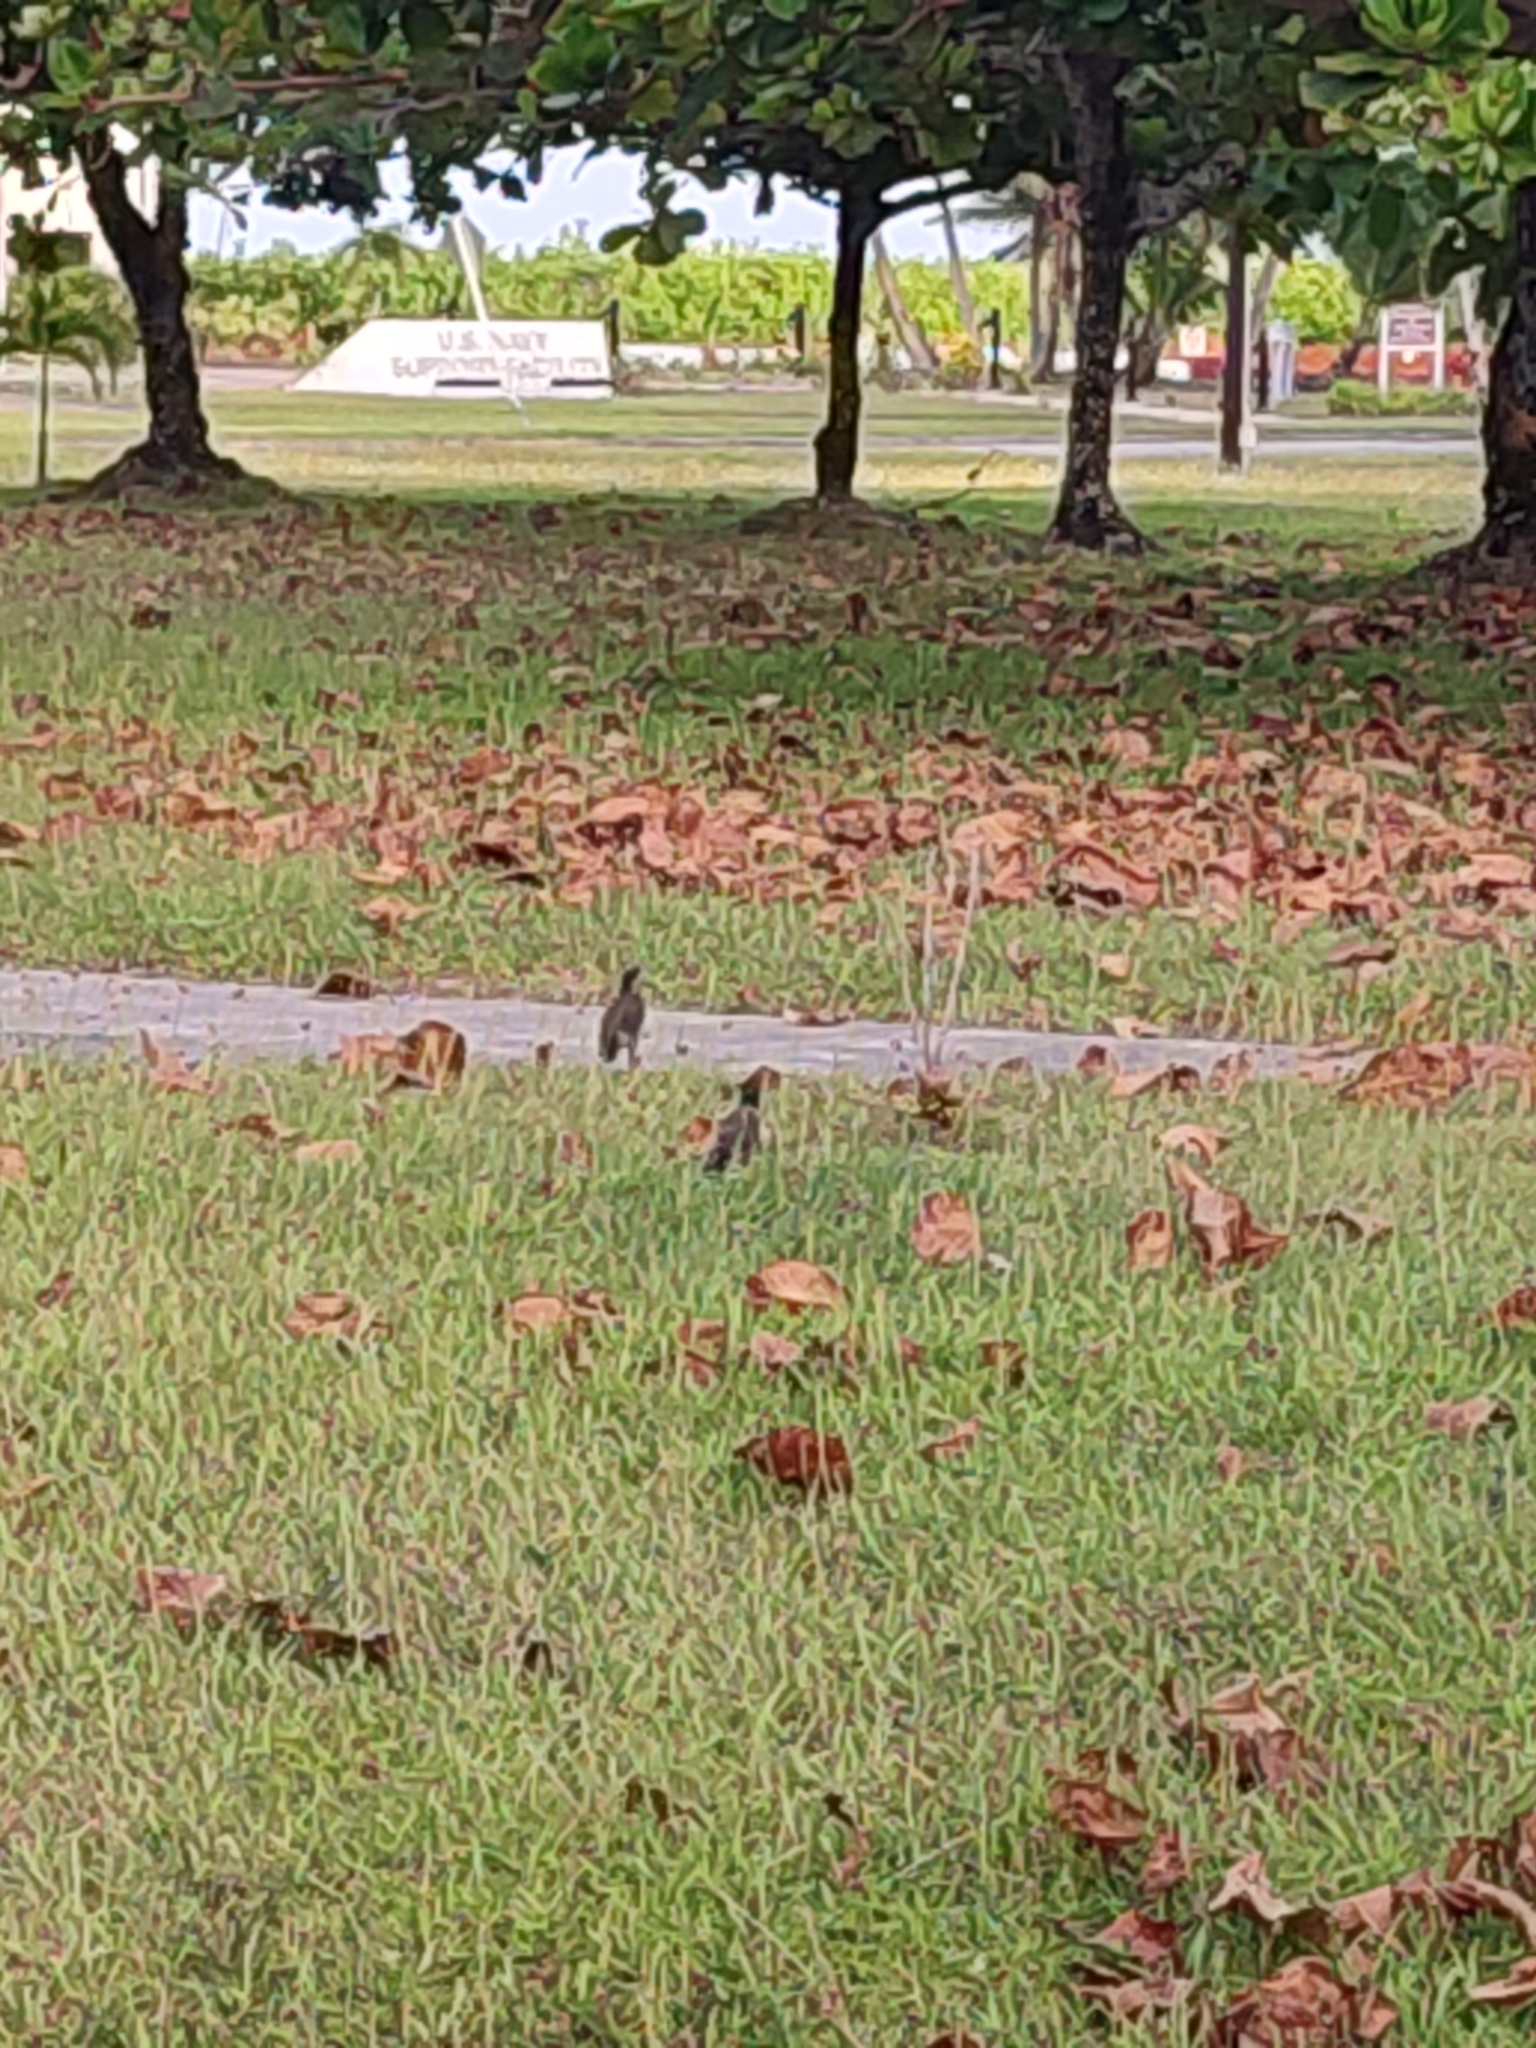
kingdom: Animalia
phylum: Chordata
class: Aves
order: Passeriformes
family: Sturnidae
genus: Acridotheres
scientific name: Acridotheres tristis
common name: Common myna
